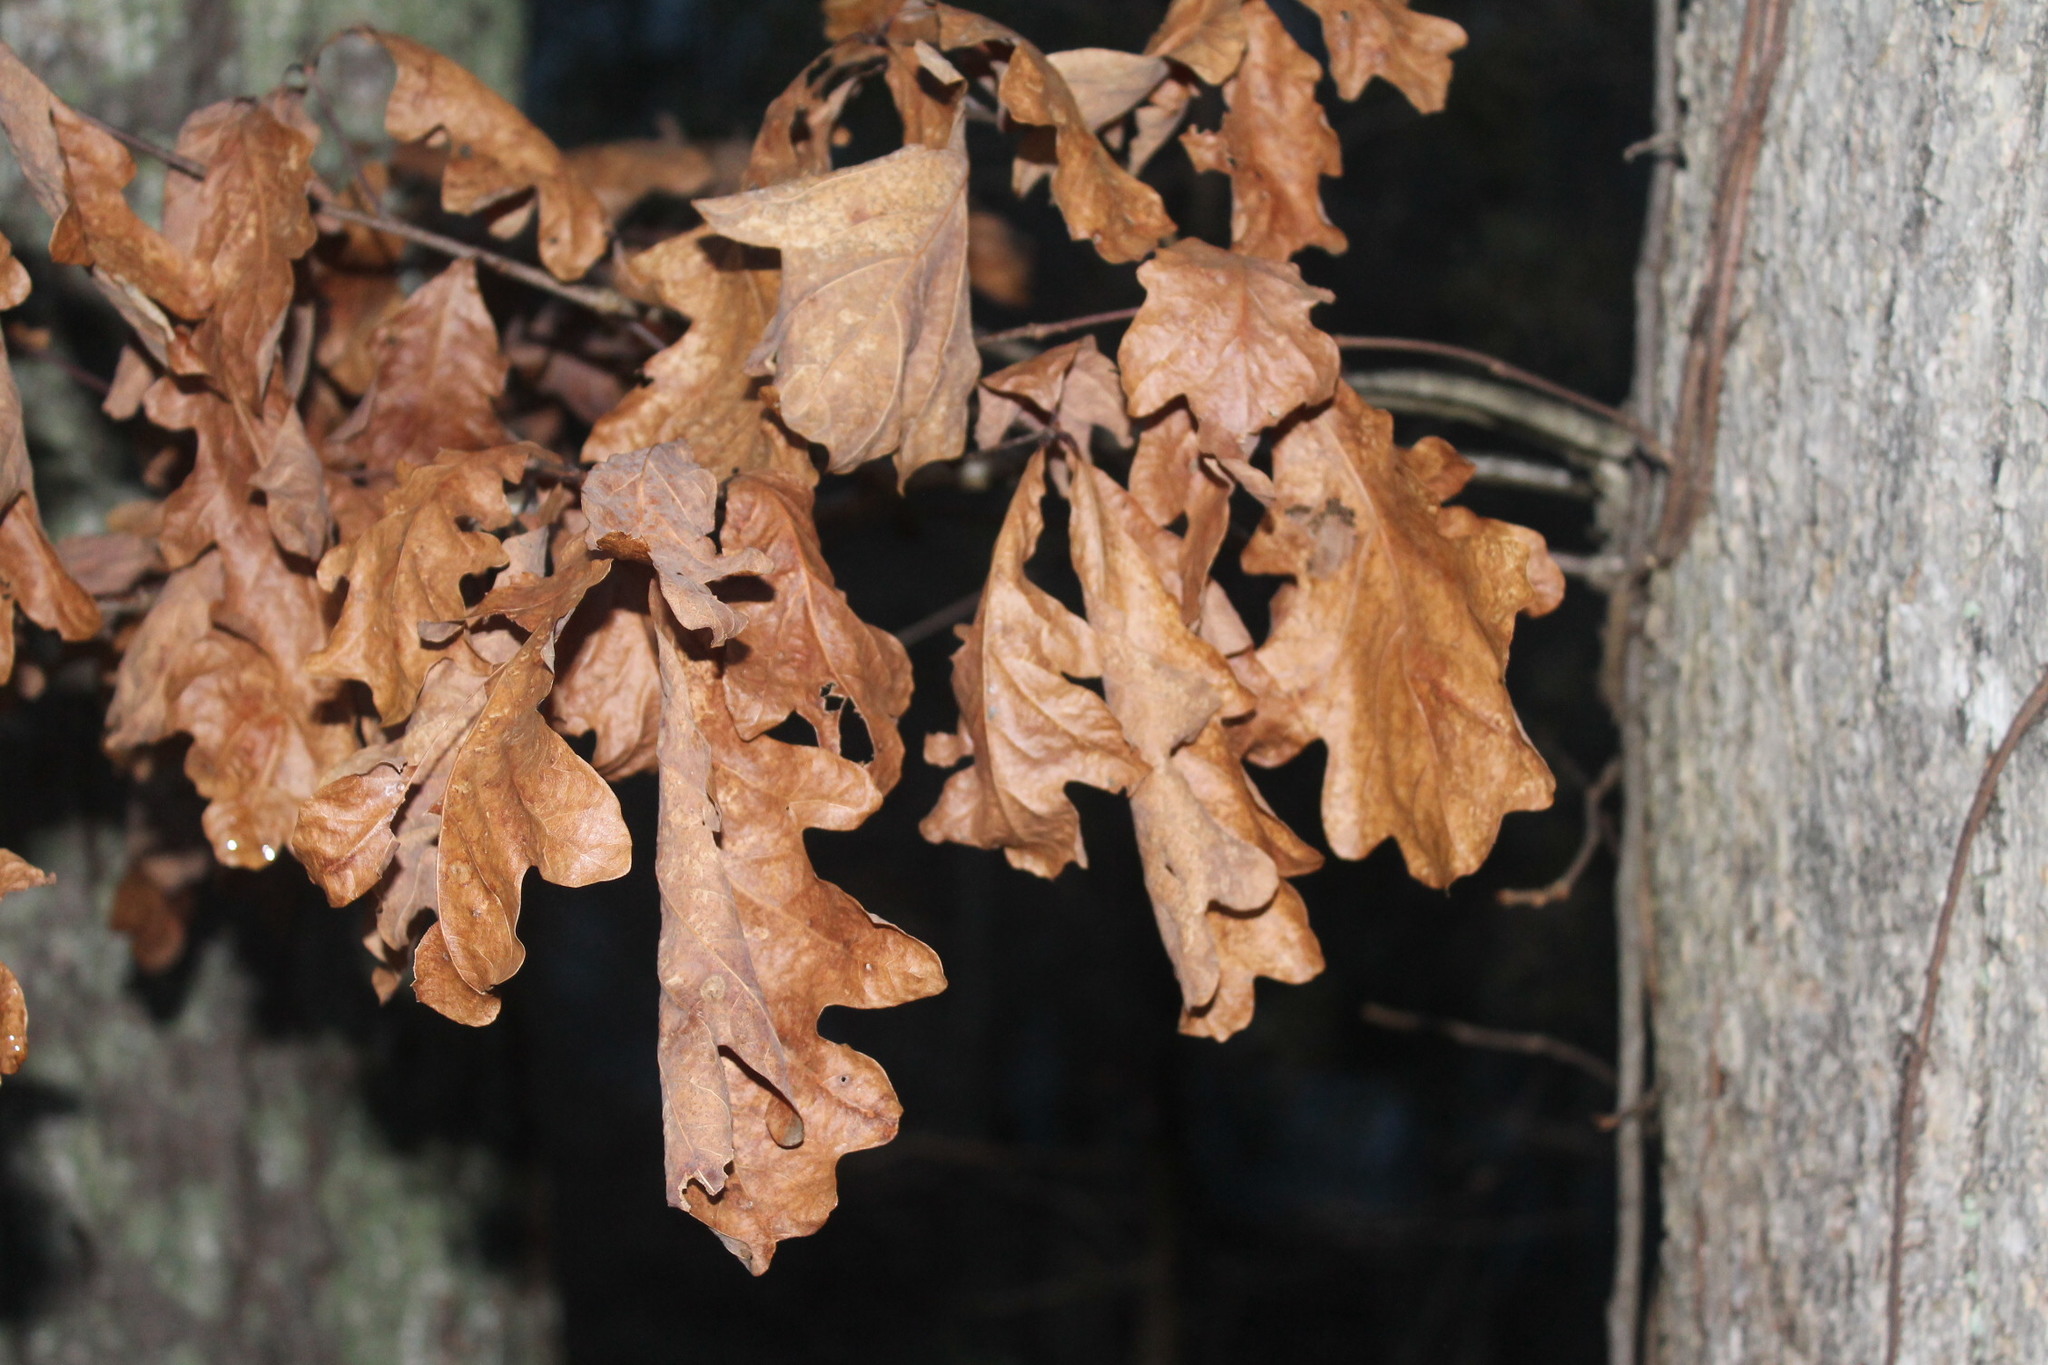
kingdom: Plantae
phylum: Tracheophyta
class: Magnoliopsida
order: Fagales
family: Fagaceae
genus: Quercus
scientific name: Quercus alba
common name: White oak
